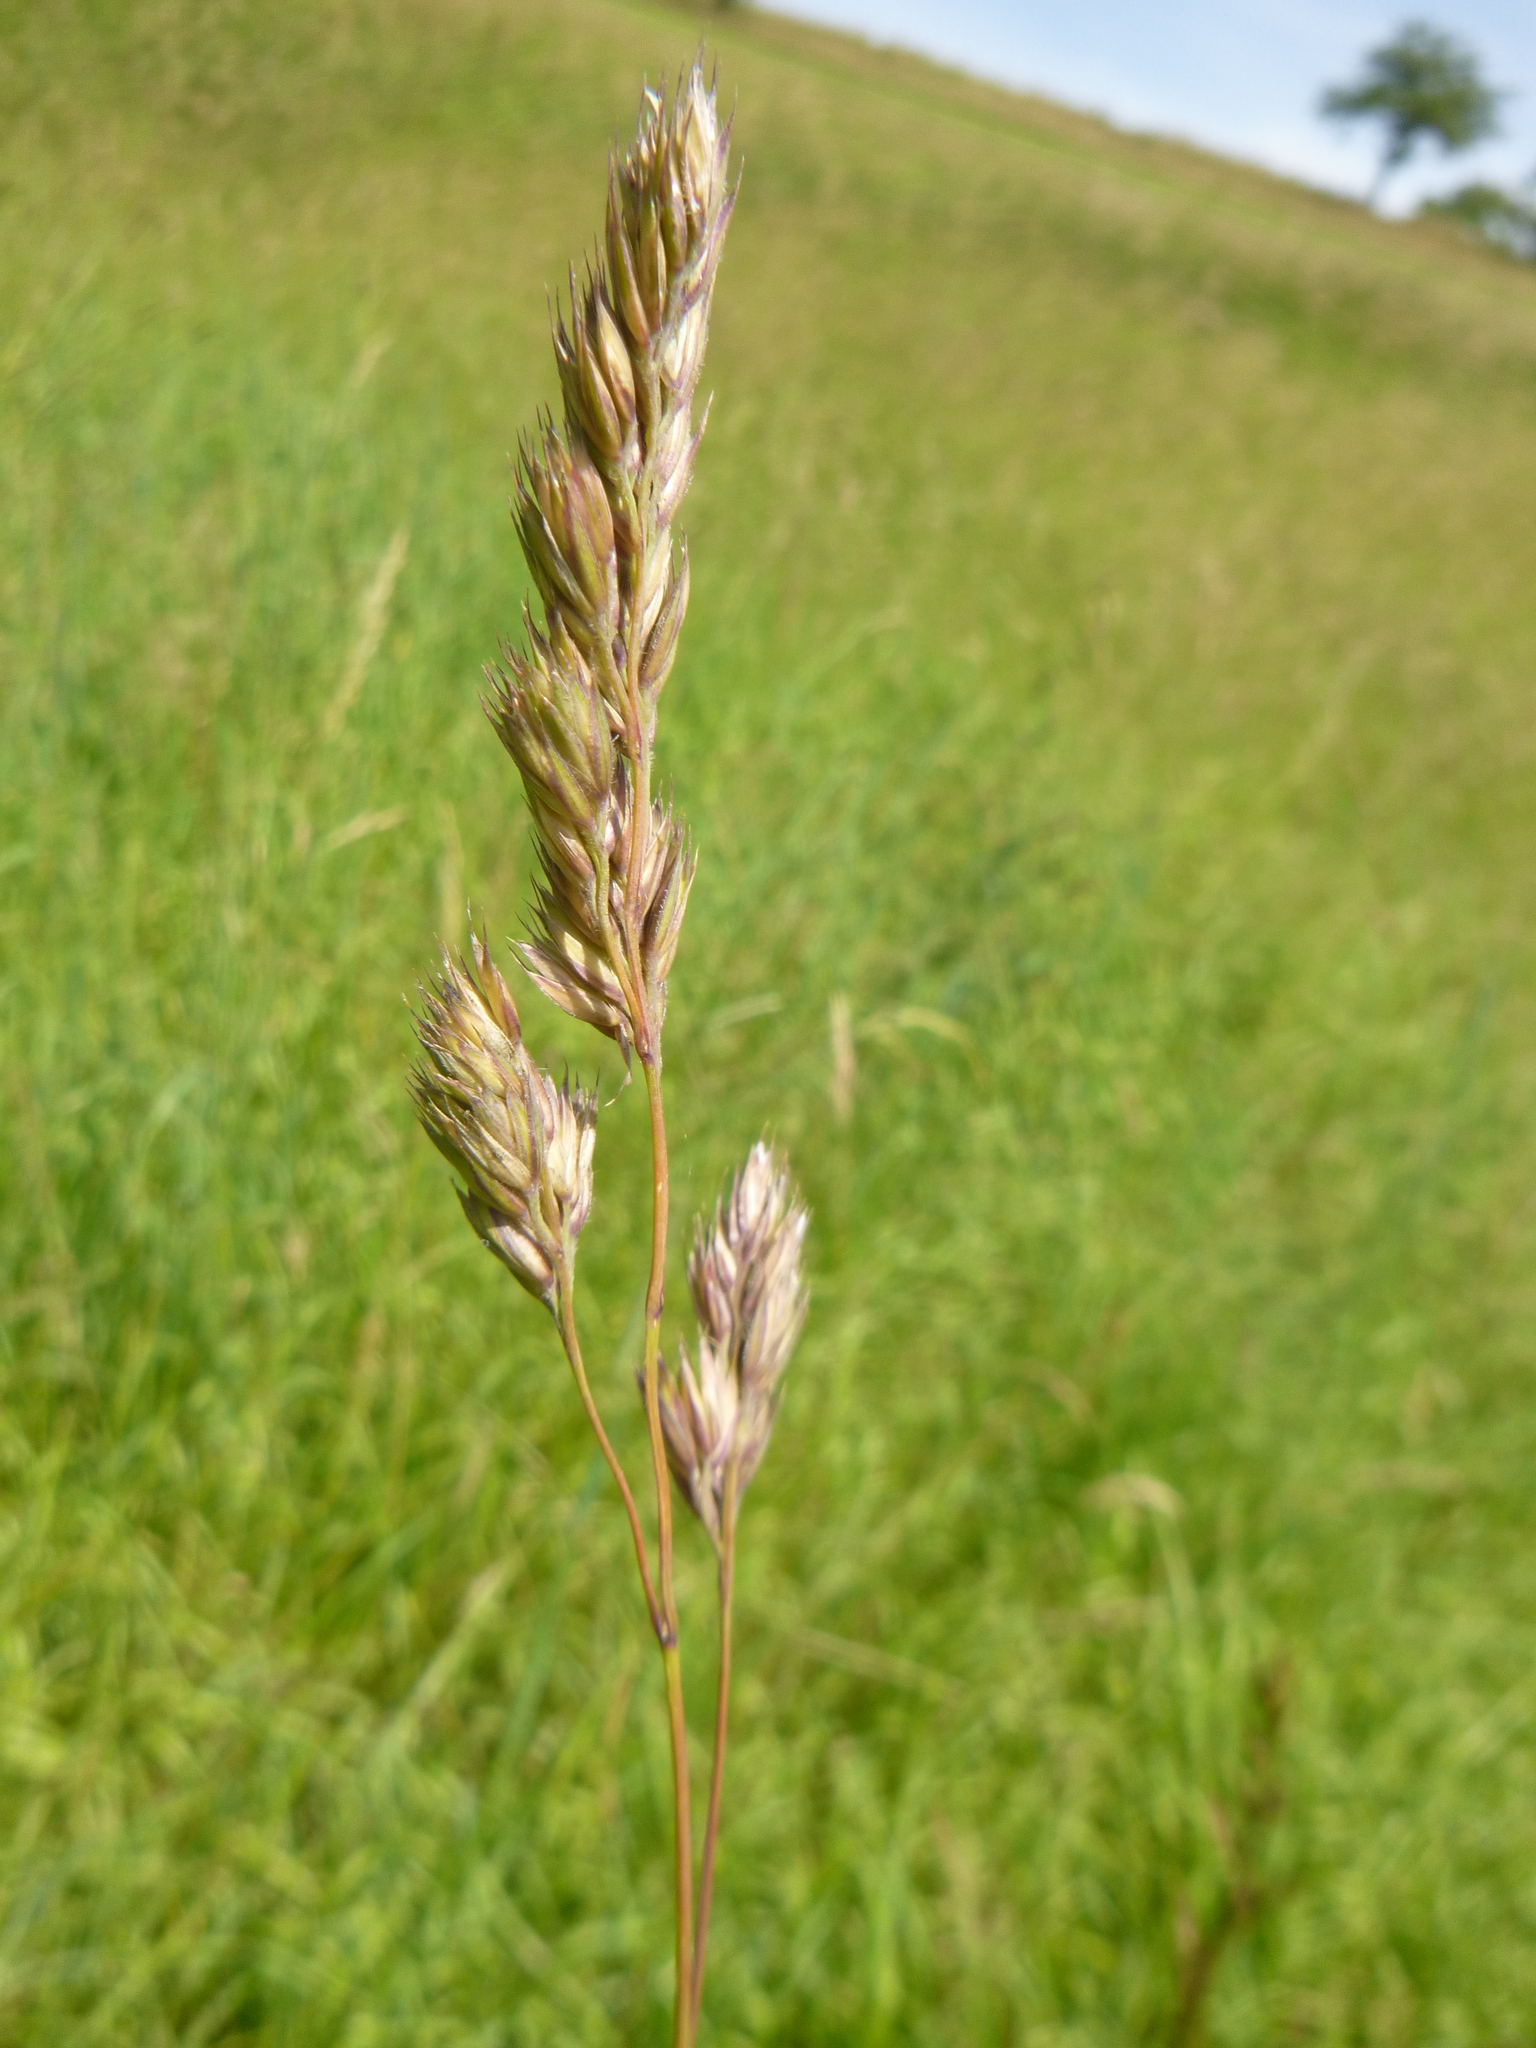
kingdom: Plantae
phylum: Tracheophyta
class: Liliopsida
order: Poales
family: Poaceae
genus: Dactylis
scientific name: Dactylis glomerata
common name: Orchardgrass
